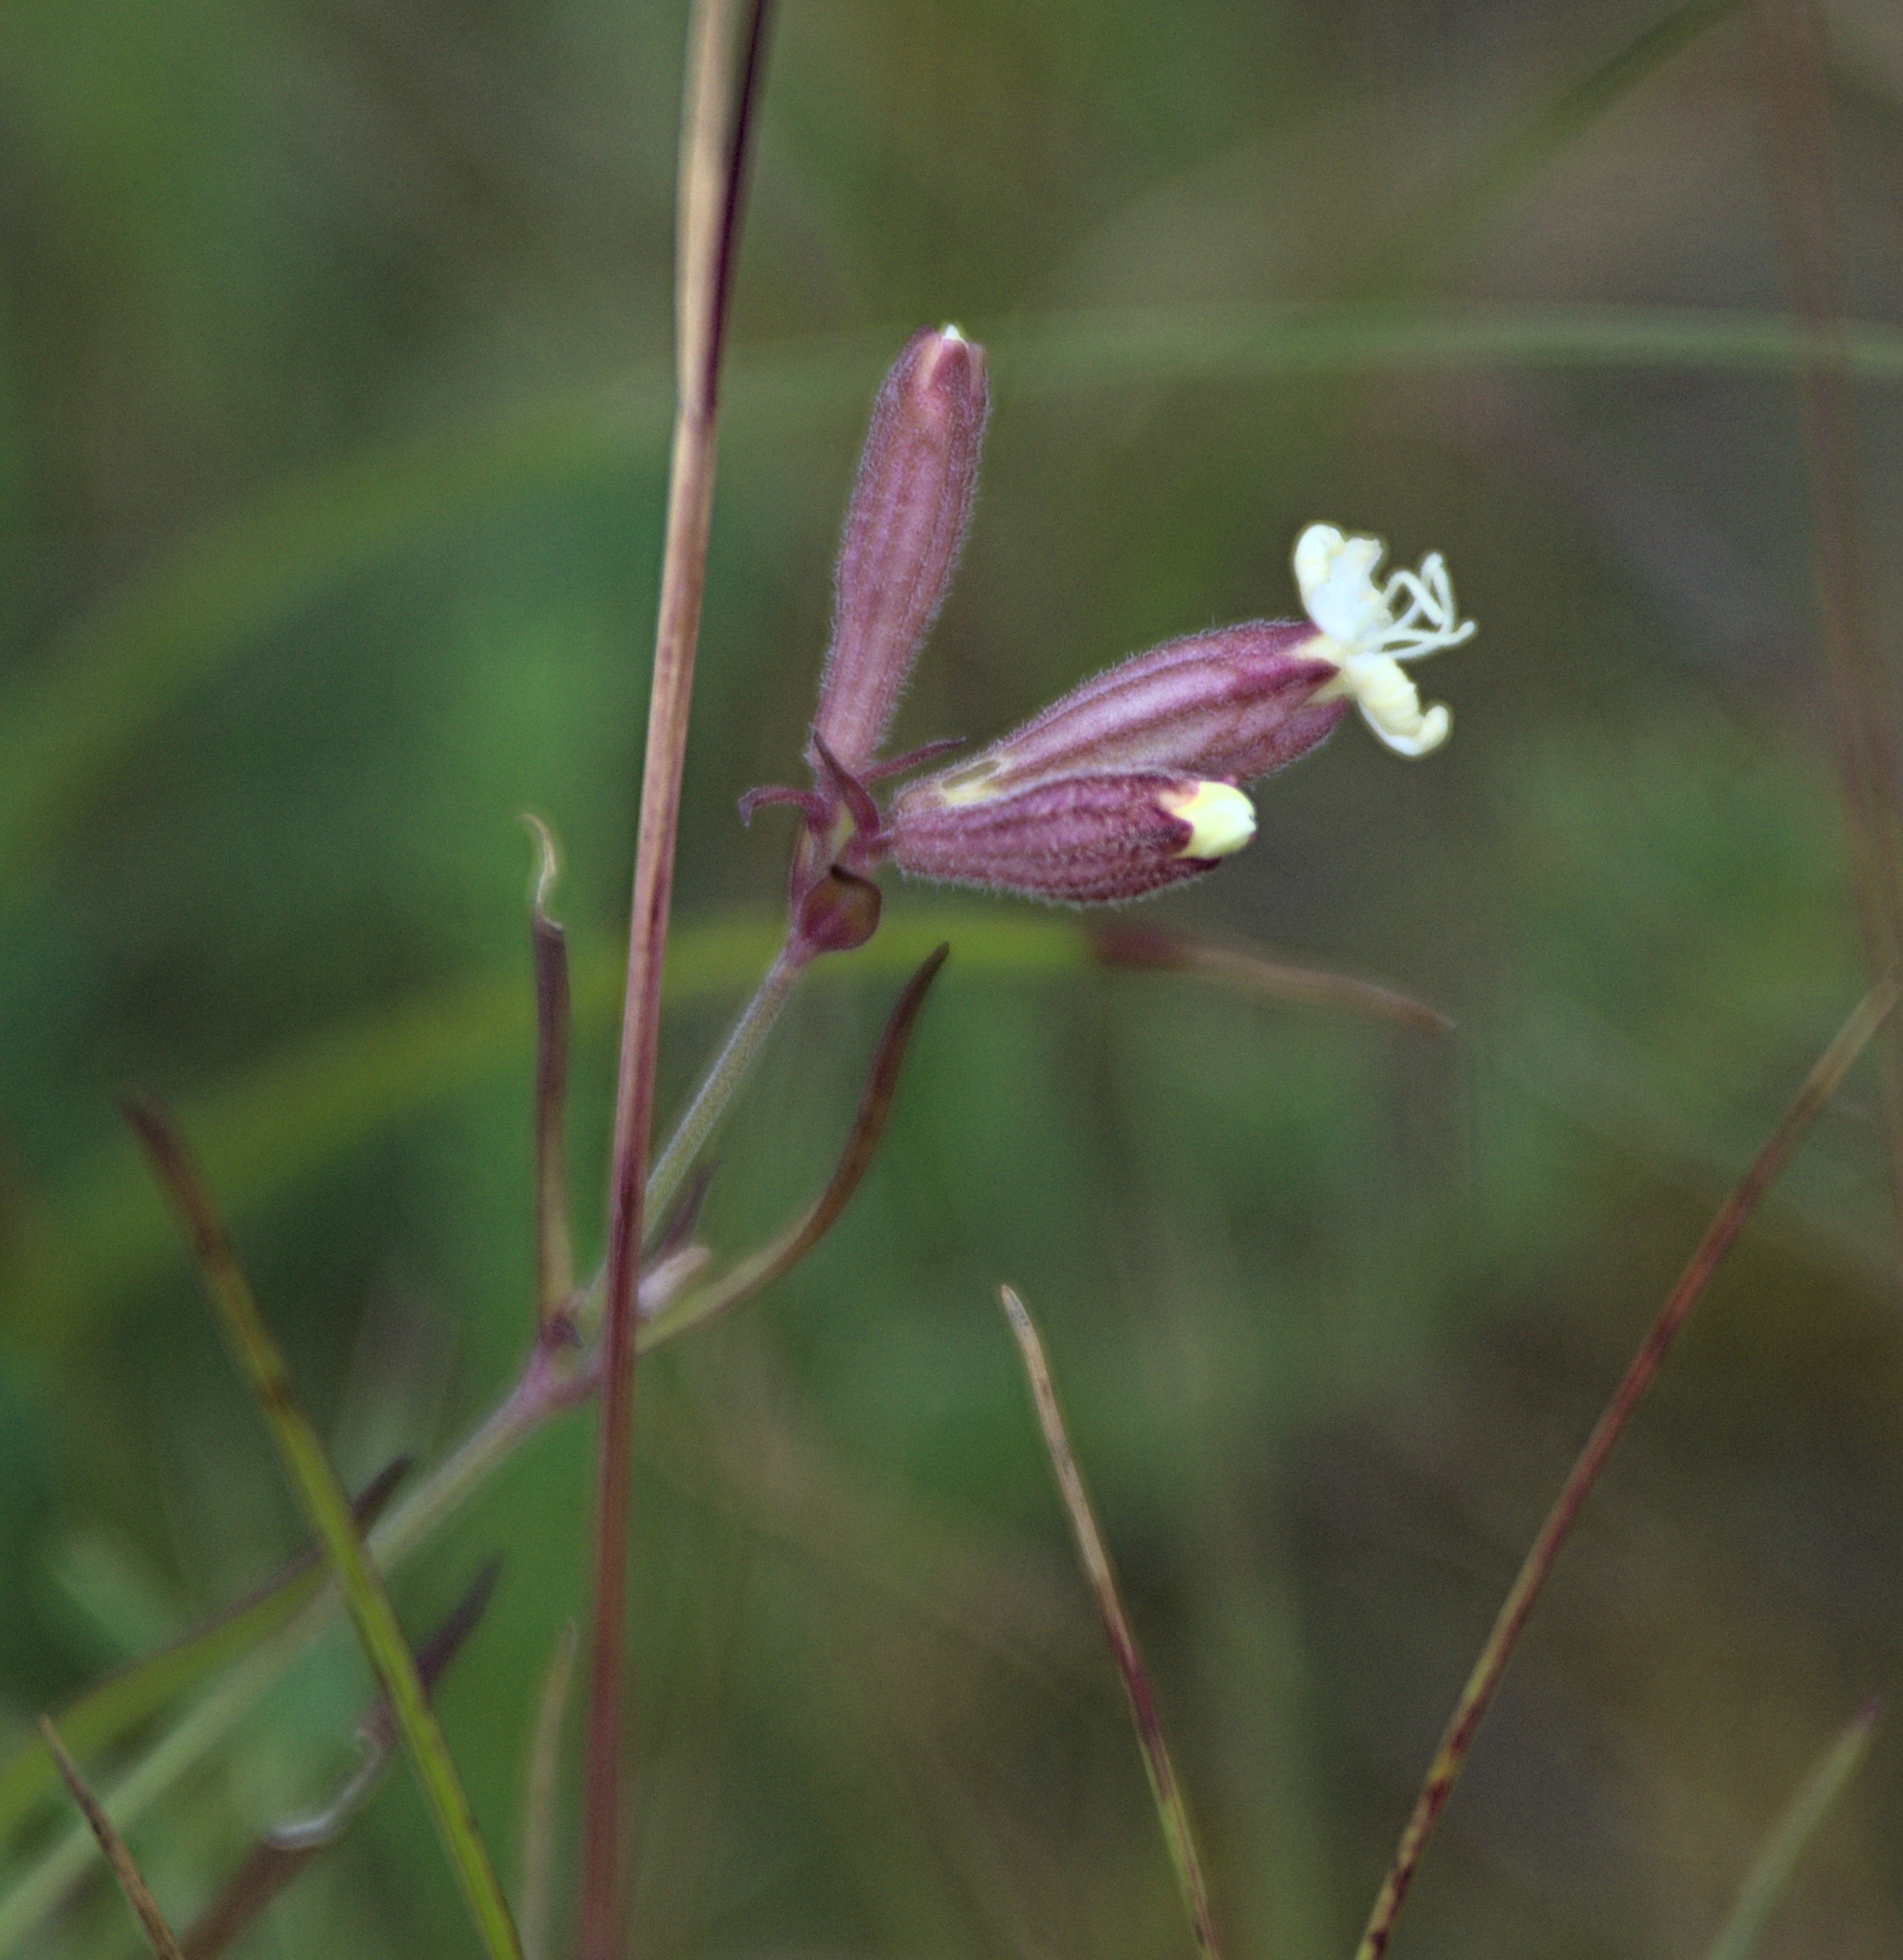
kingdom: Plantae
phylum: Tracheophyta
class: Magnoliopsida
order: Caryophyllales
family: Caryophyllaceae
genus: Silene
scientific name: Silene amoena
